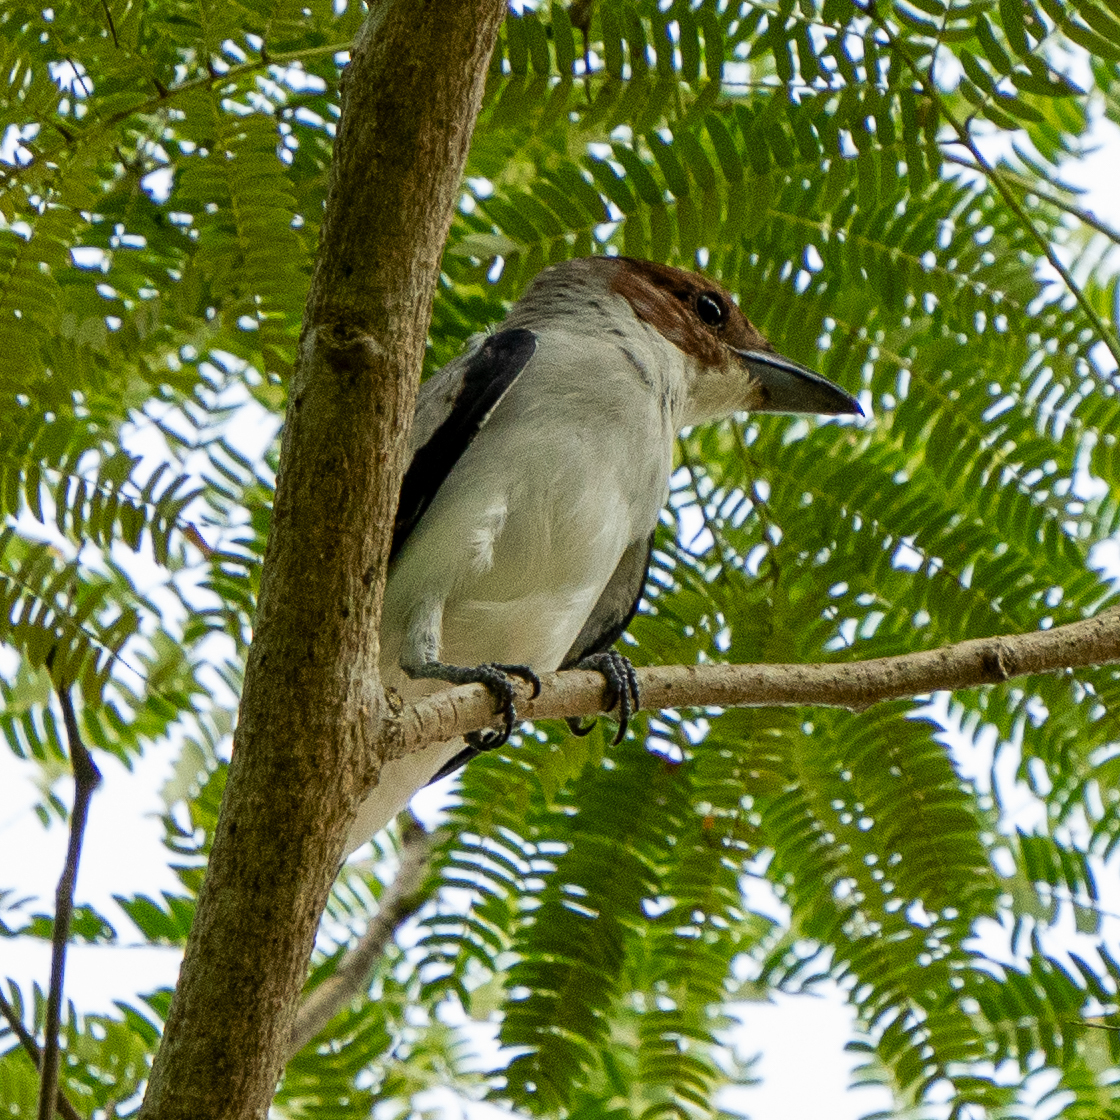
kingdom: Animalia
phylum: Chordata
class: Aves
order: Passeriformes
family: Cotingidae
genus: Tityra
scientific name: Tityra inquisitor
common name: Black-crowned tityra
